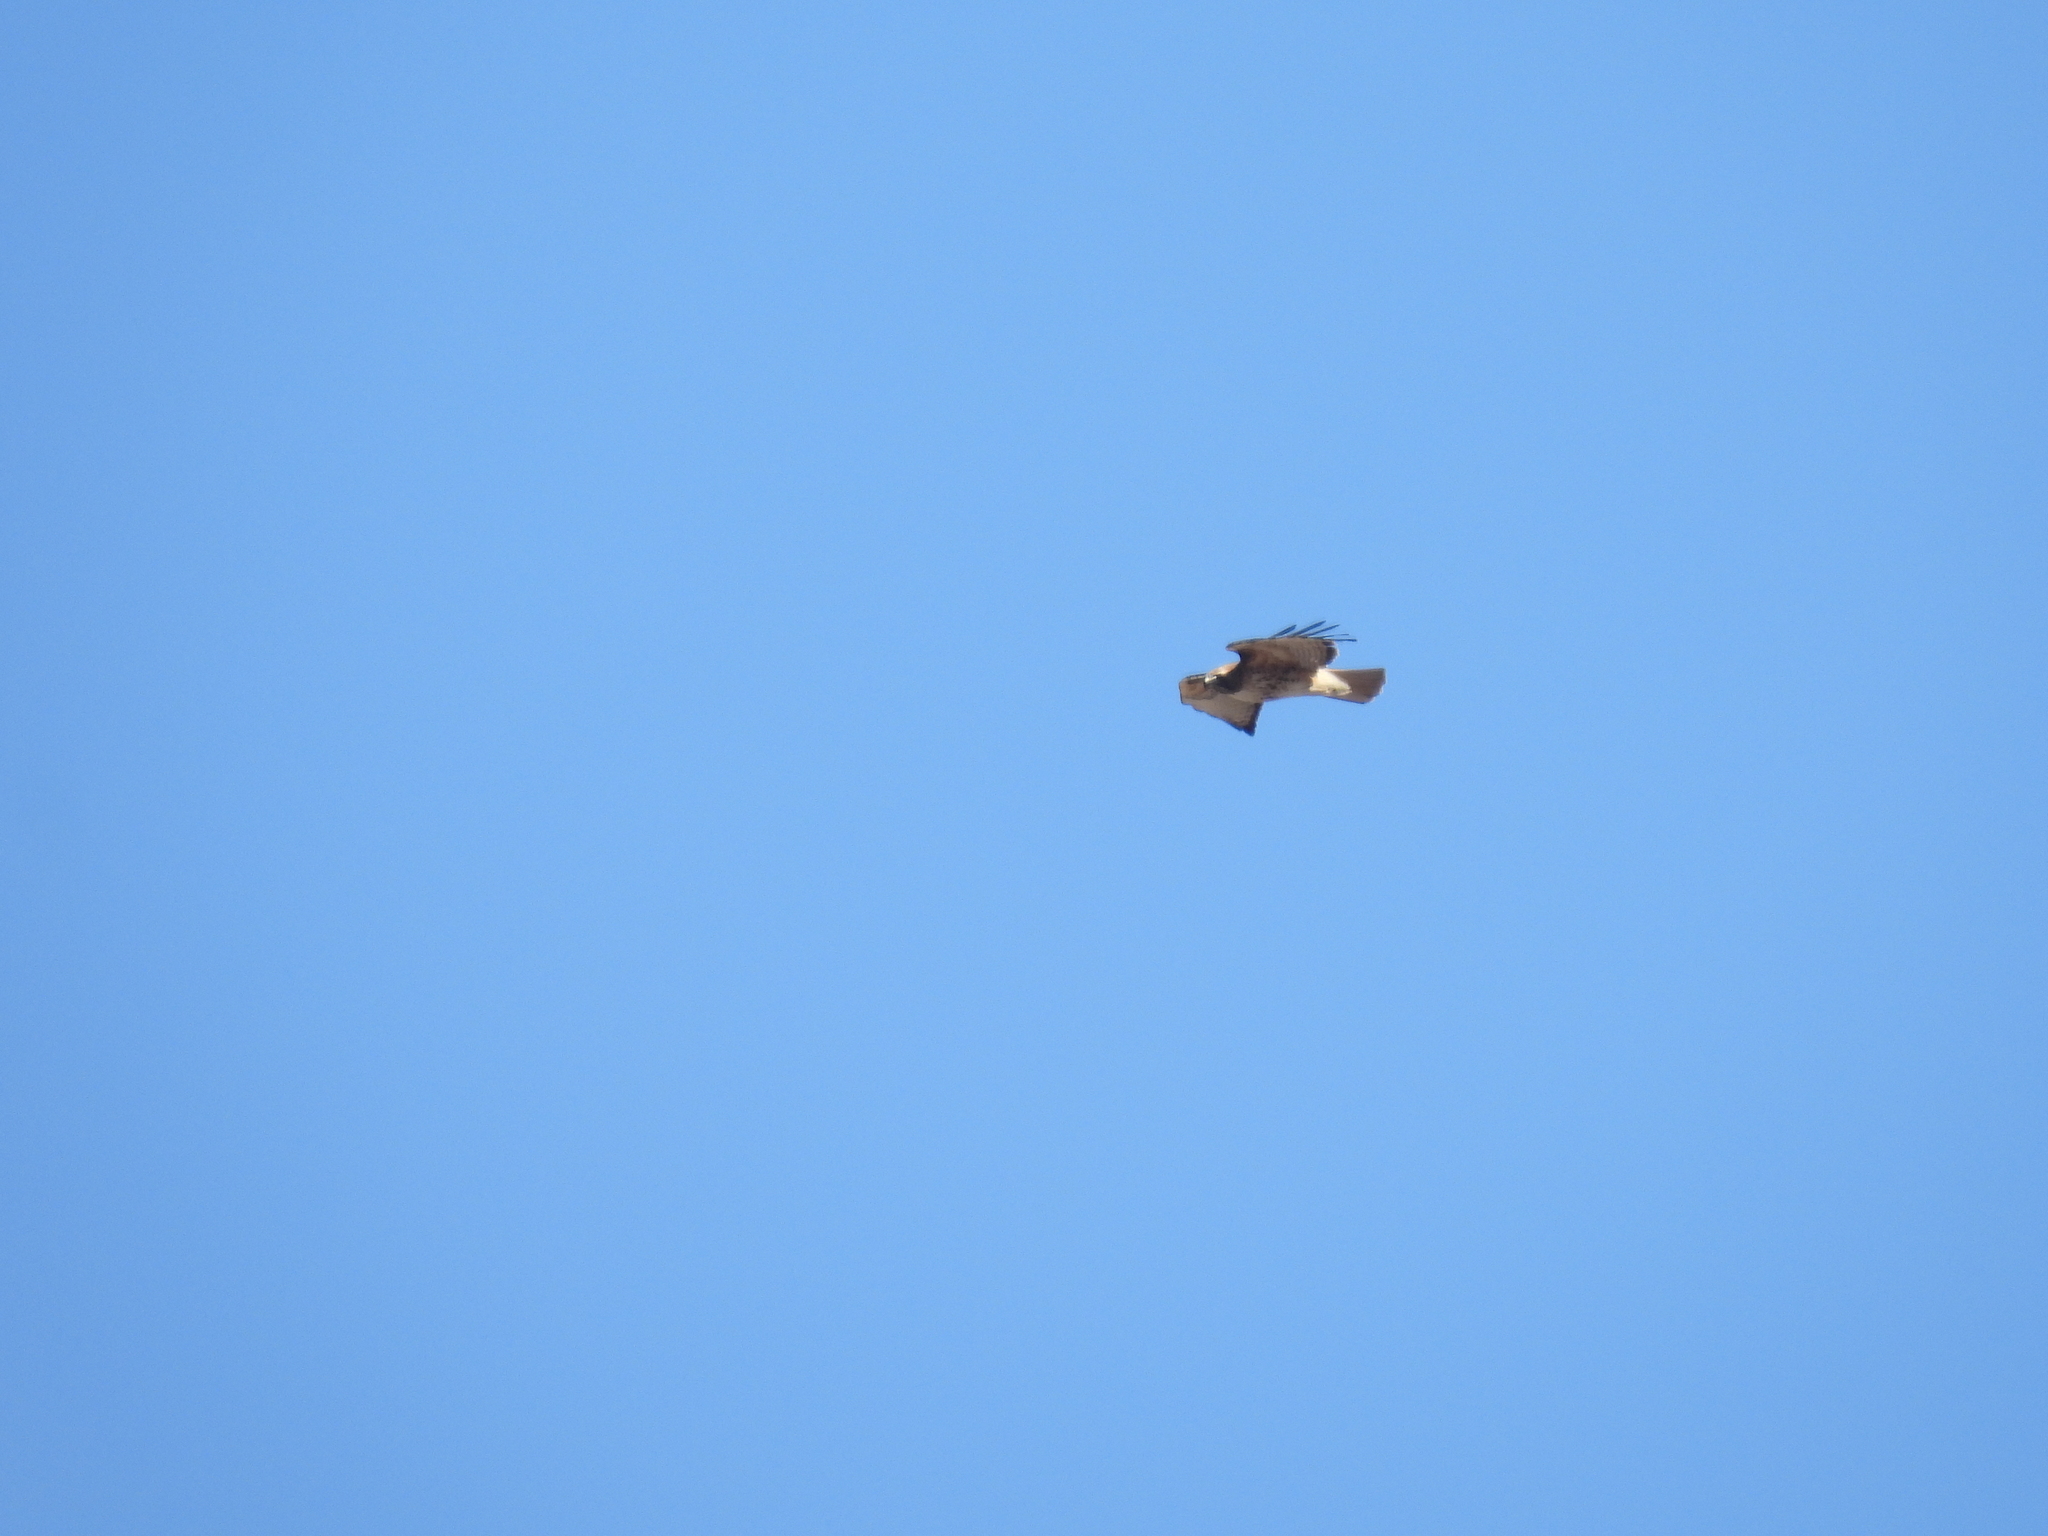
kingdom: Animalia
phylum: Chordata
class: Aves
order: Accipitriformes
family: Accipitridae
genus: Buteo
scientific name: Buteo jamaicensis
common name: Red-tailed hawk
